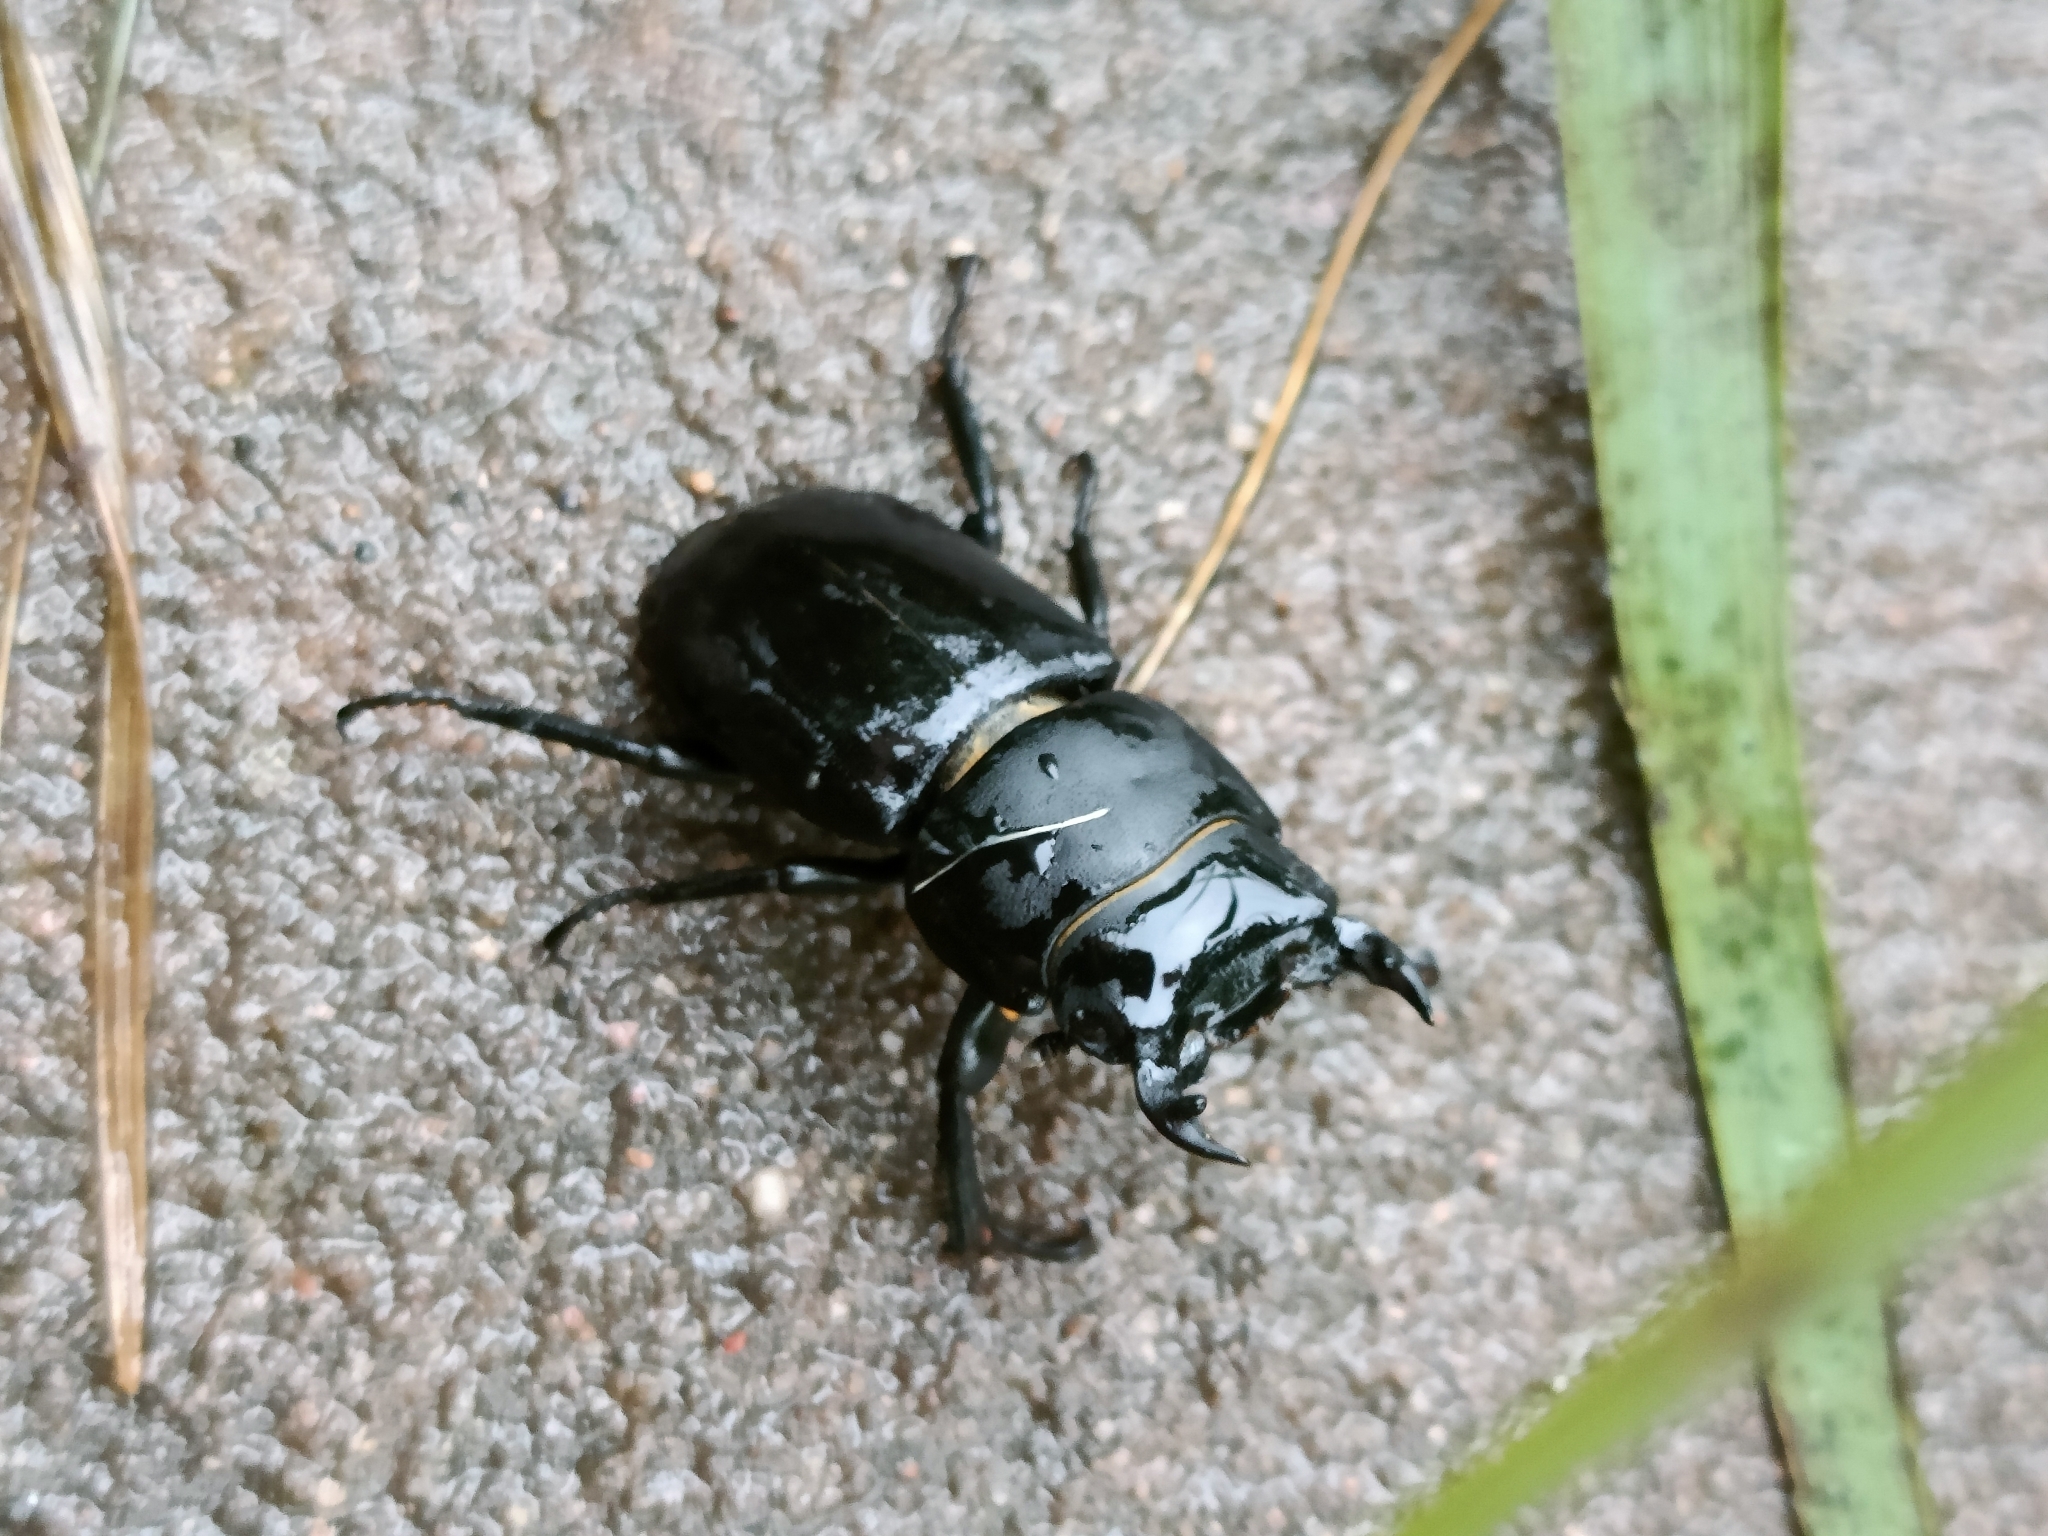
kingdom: Animalia
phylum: Arthropoda
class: Insecta
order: Coleoptera
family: Lucanidae
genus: Dorcus
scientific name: Dorcus parallelipipedus
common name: Lesser stag beetle
